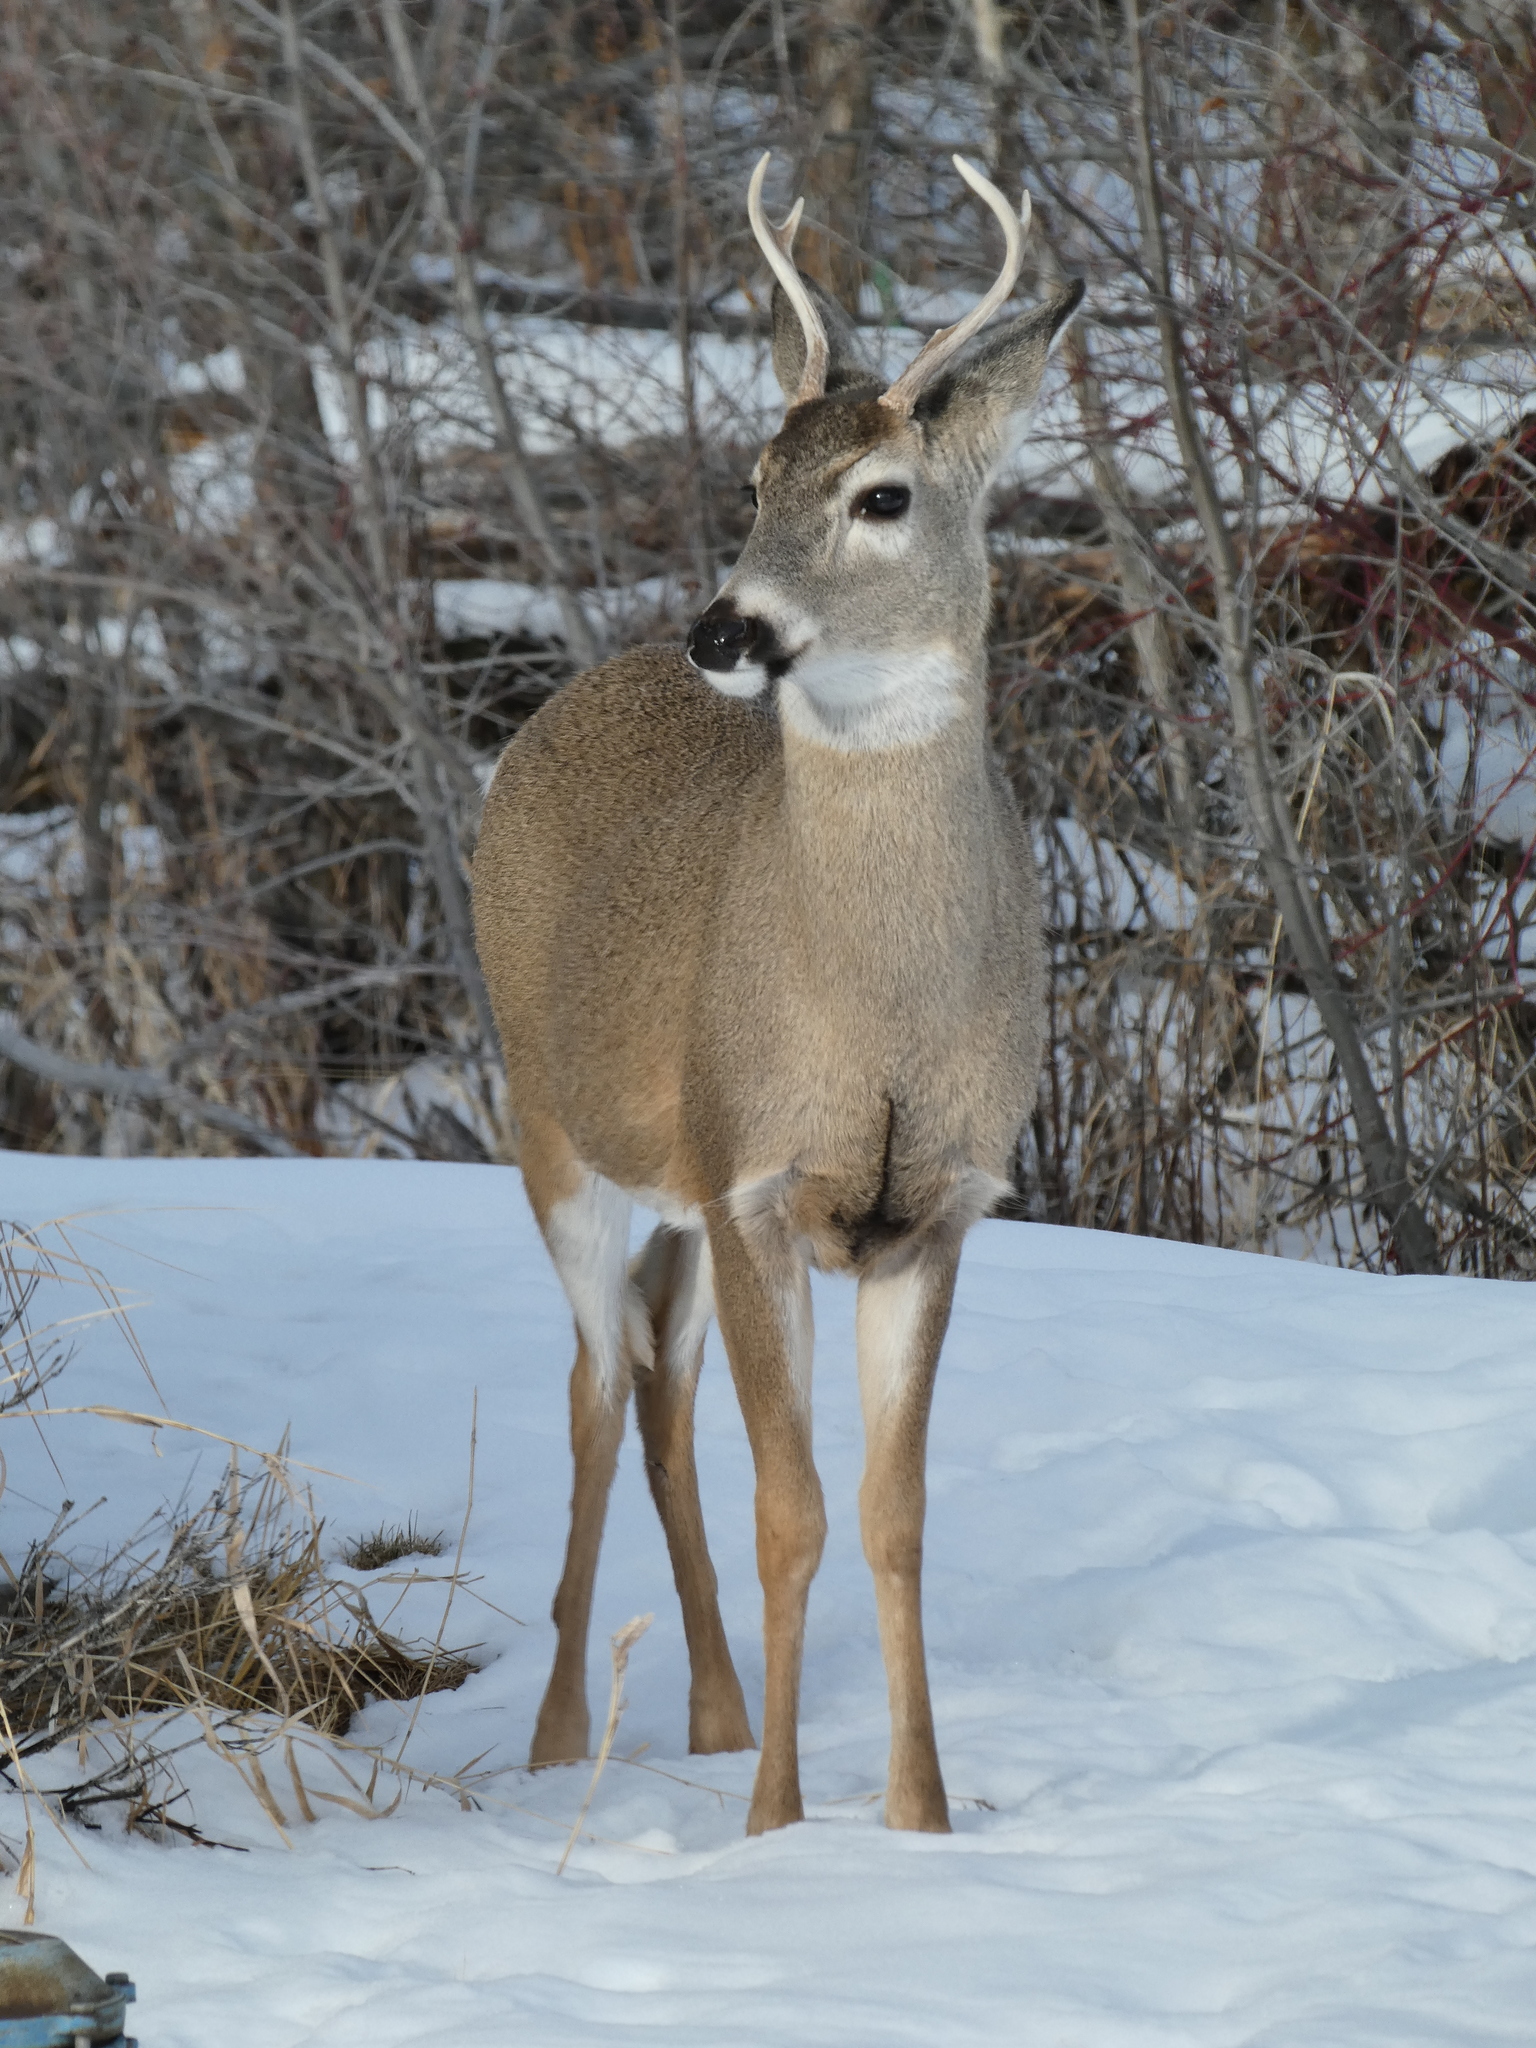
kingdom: Animalia
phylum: Chordata
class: Mammalia
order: Artiodactyla
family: Cervidae
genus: Odocoileus
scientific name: Odocoileus virginianus
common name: White-tailed deer
